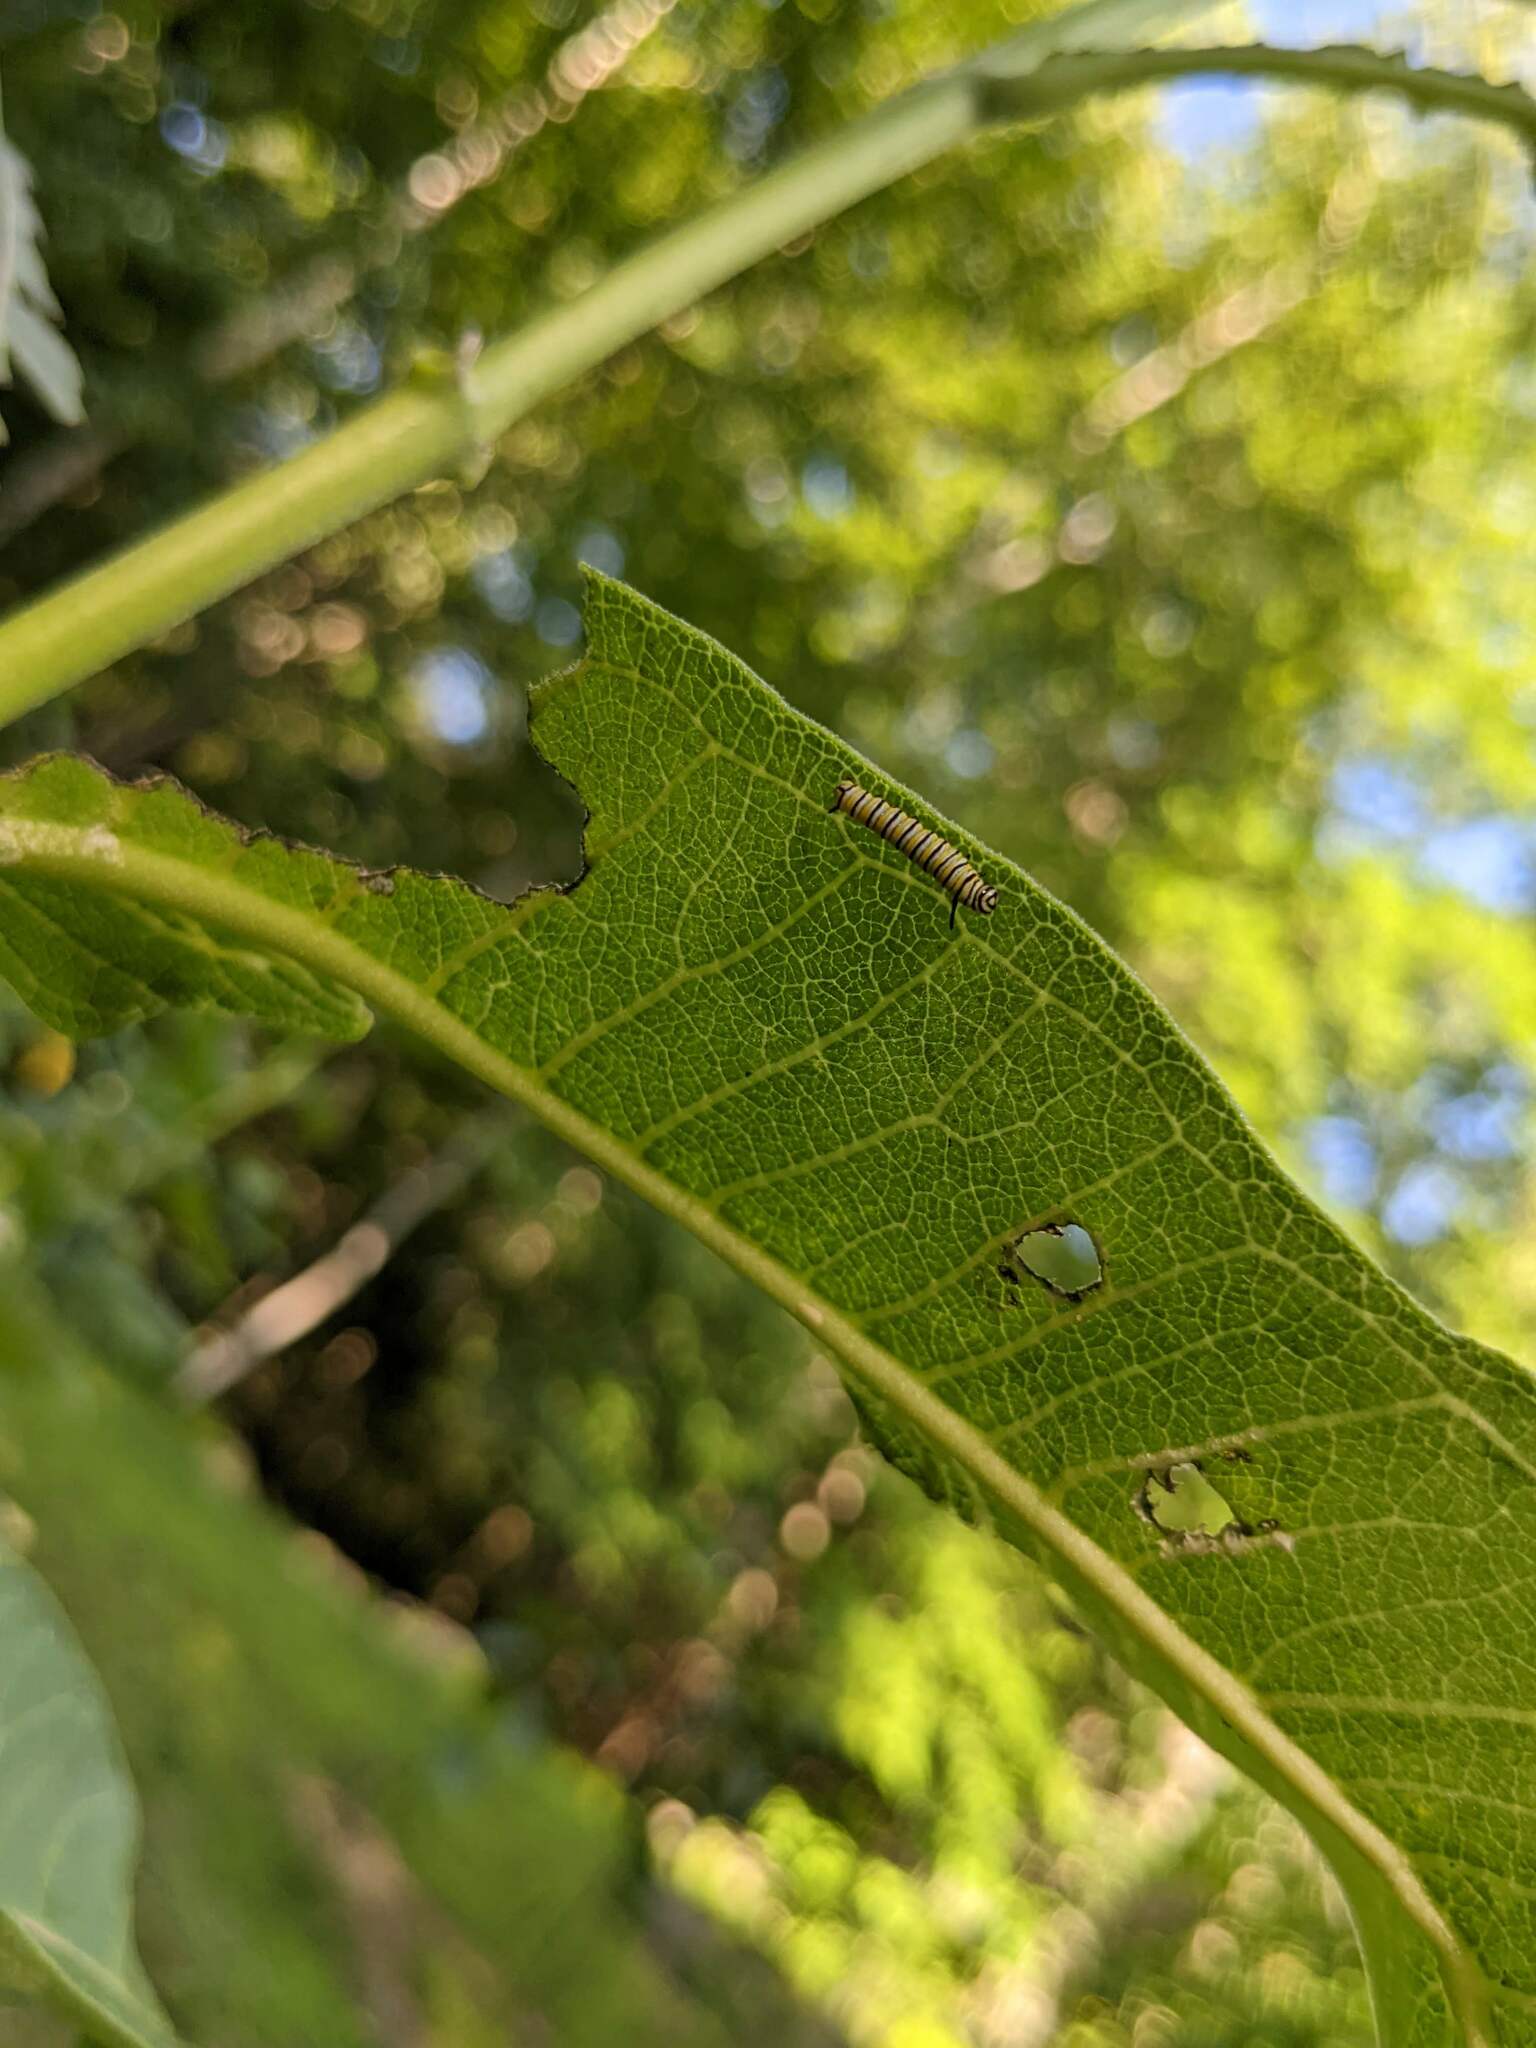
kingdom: Animalia
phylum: Arthropoda
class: Insecta
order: Lepidoptera
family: Nymphalidae
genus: Danaus
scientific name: Danaus plexippus
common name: Monarch
